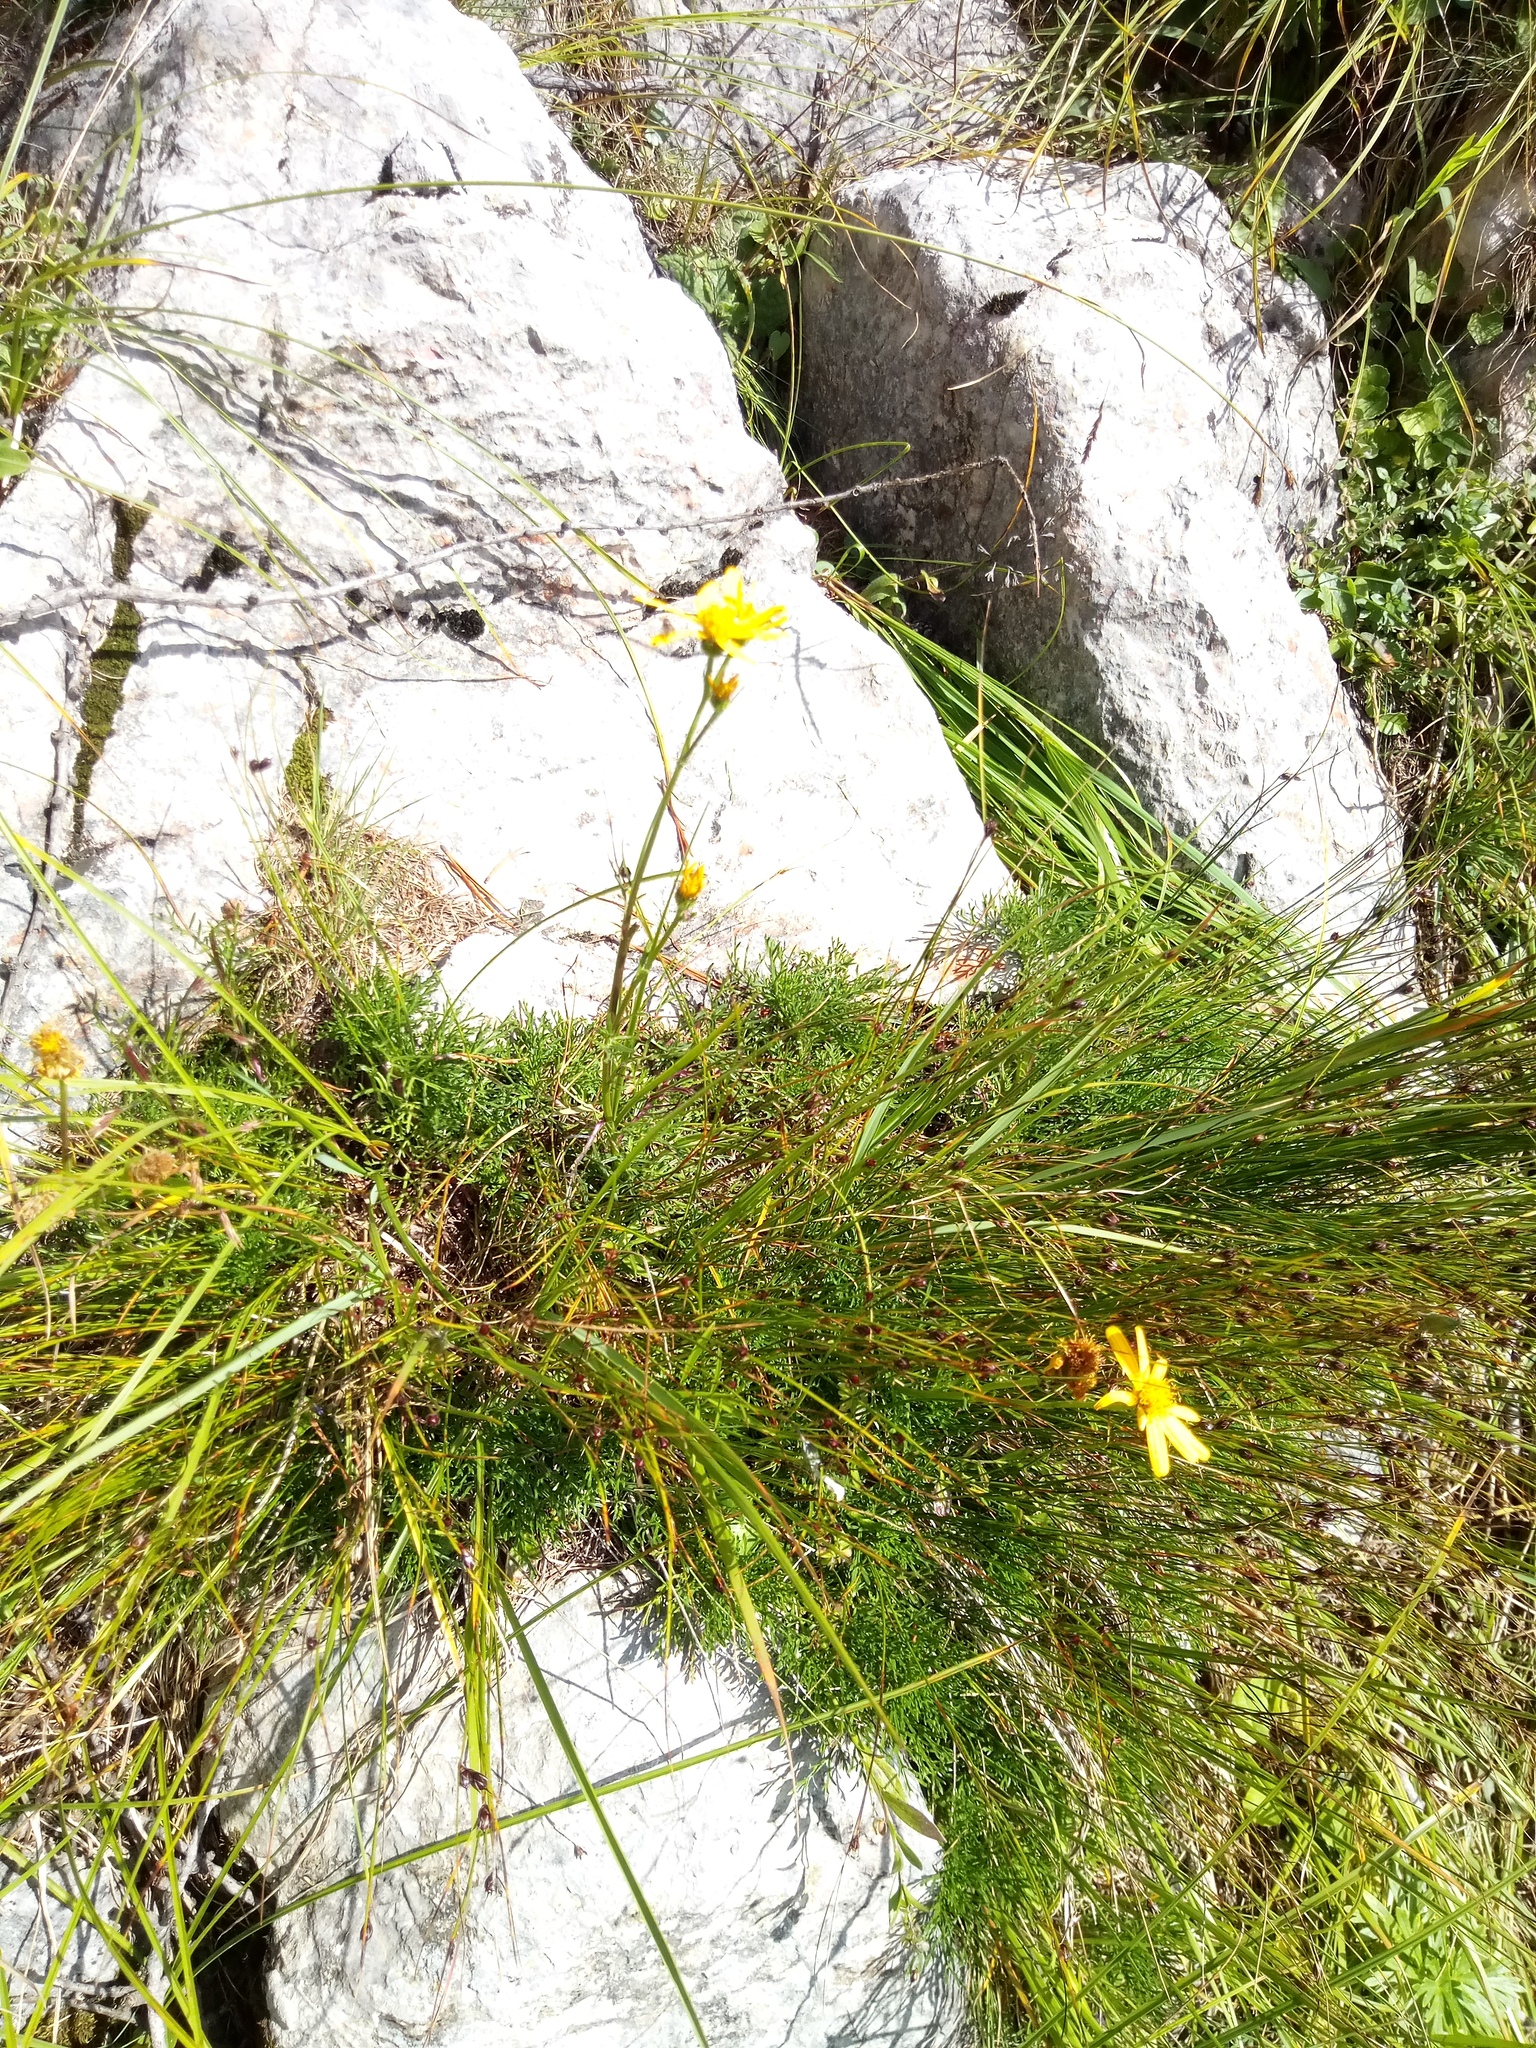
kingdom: Plantae
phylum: Tracheophyta
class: Magnoliopsida
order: Asterales
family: Asteraceae
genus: Jacobaea
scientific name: Jacobaea abrotanifolia
